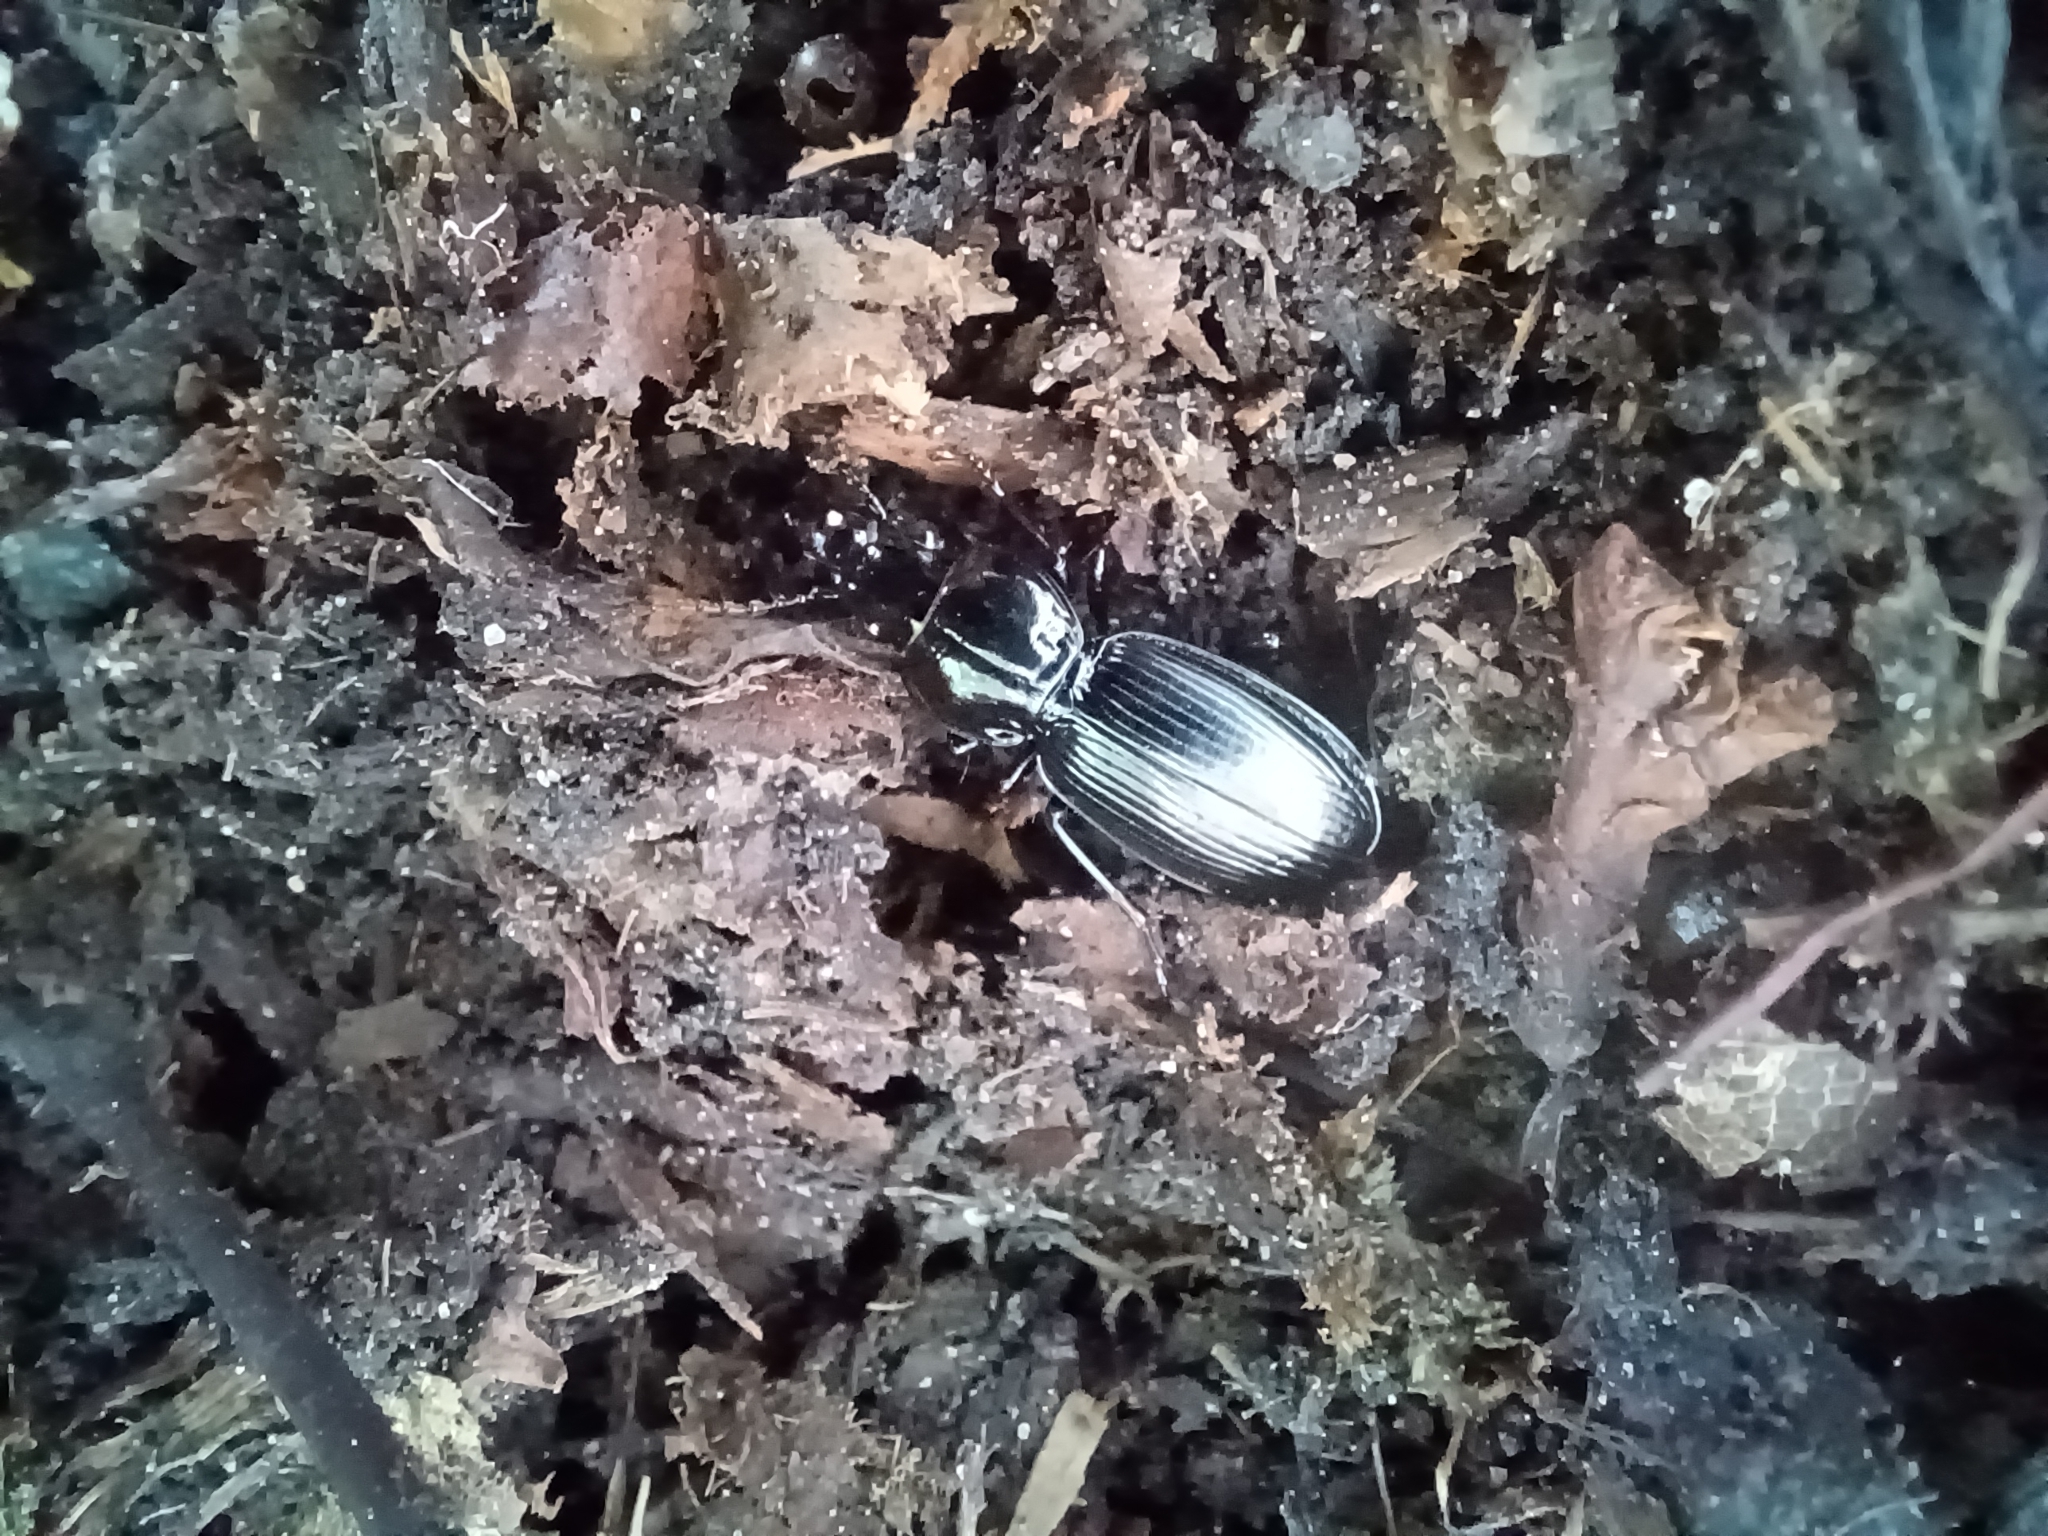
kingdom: Animalia
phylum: Arthropoda
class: Insecta
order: Coleoptera
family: Carabidae
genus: Pterostichus
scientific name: Pterostichus madidus
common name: Black clock
